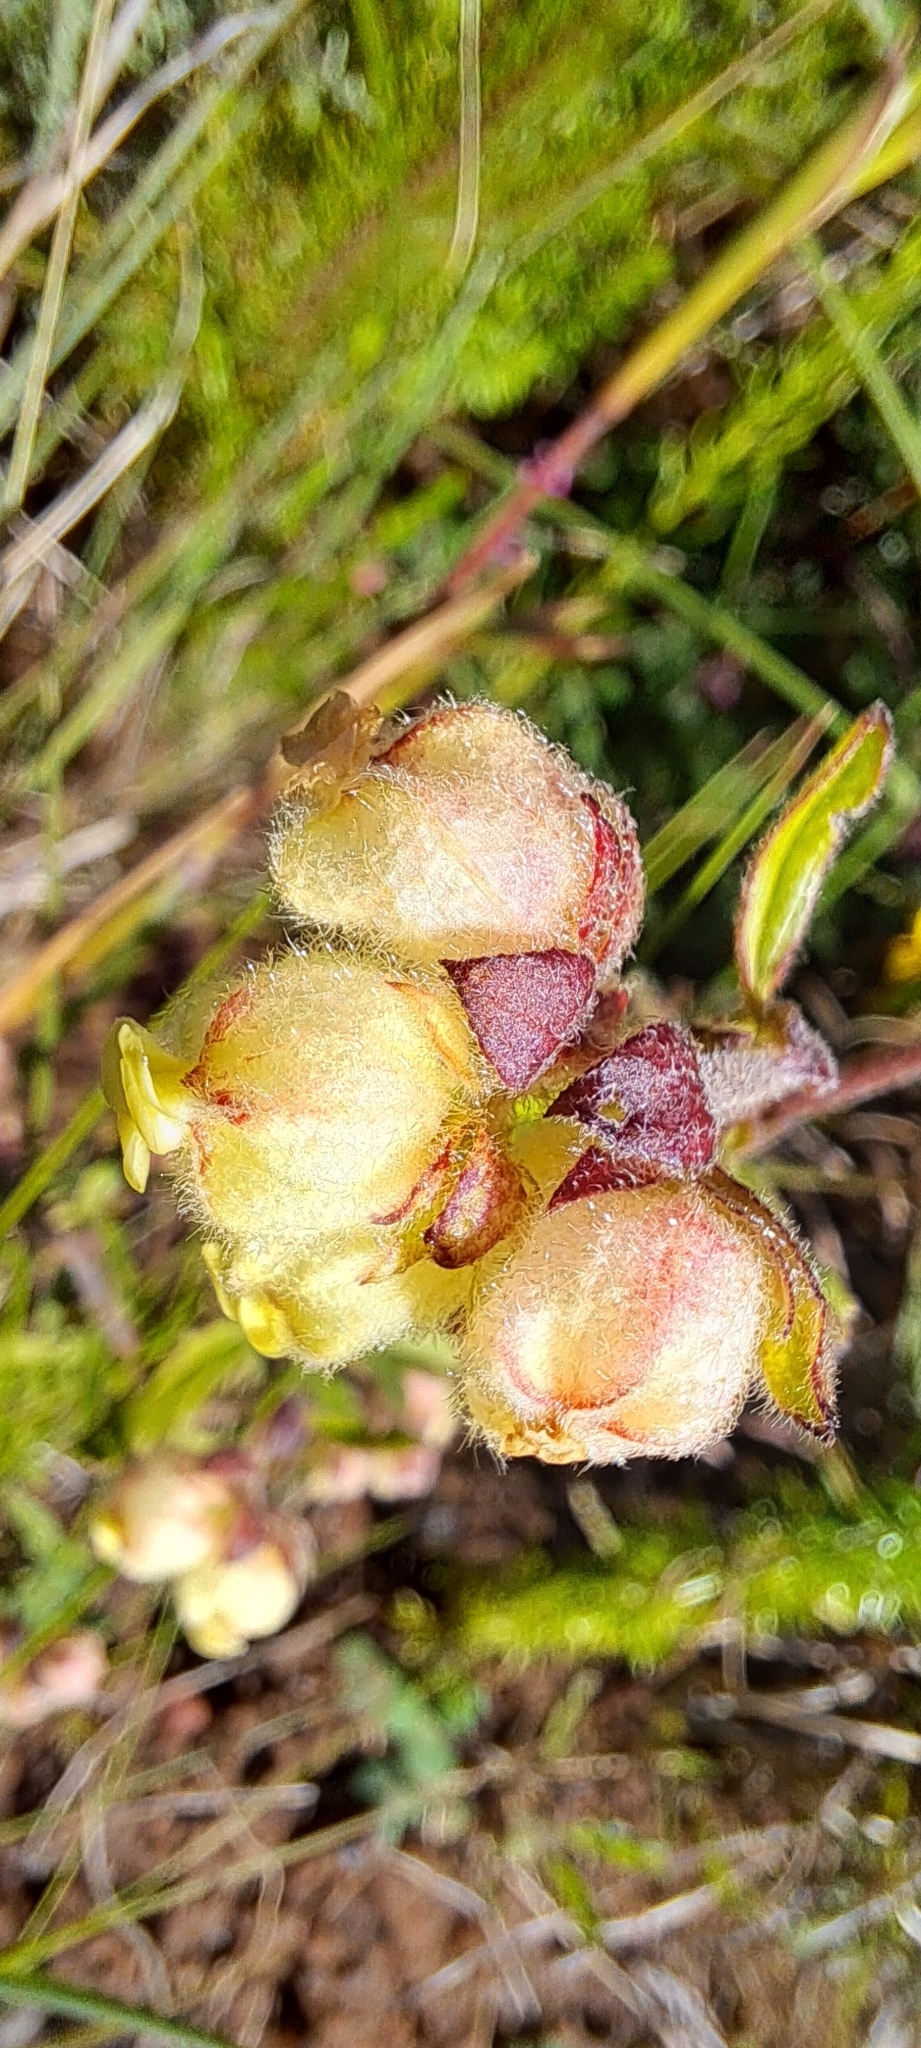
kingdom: Plantae
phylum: Tracheophyta
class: Magnoliopsida
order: Malvales
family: Malvaceae
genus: Hermannia
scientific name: Hermannia hyssopifolia
